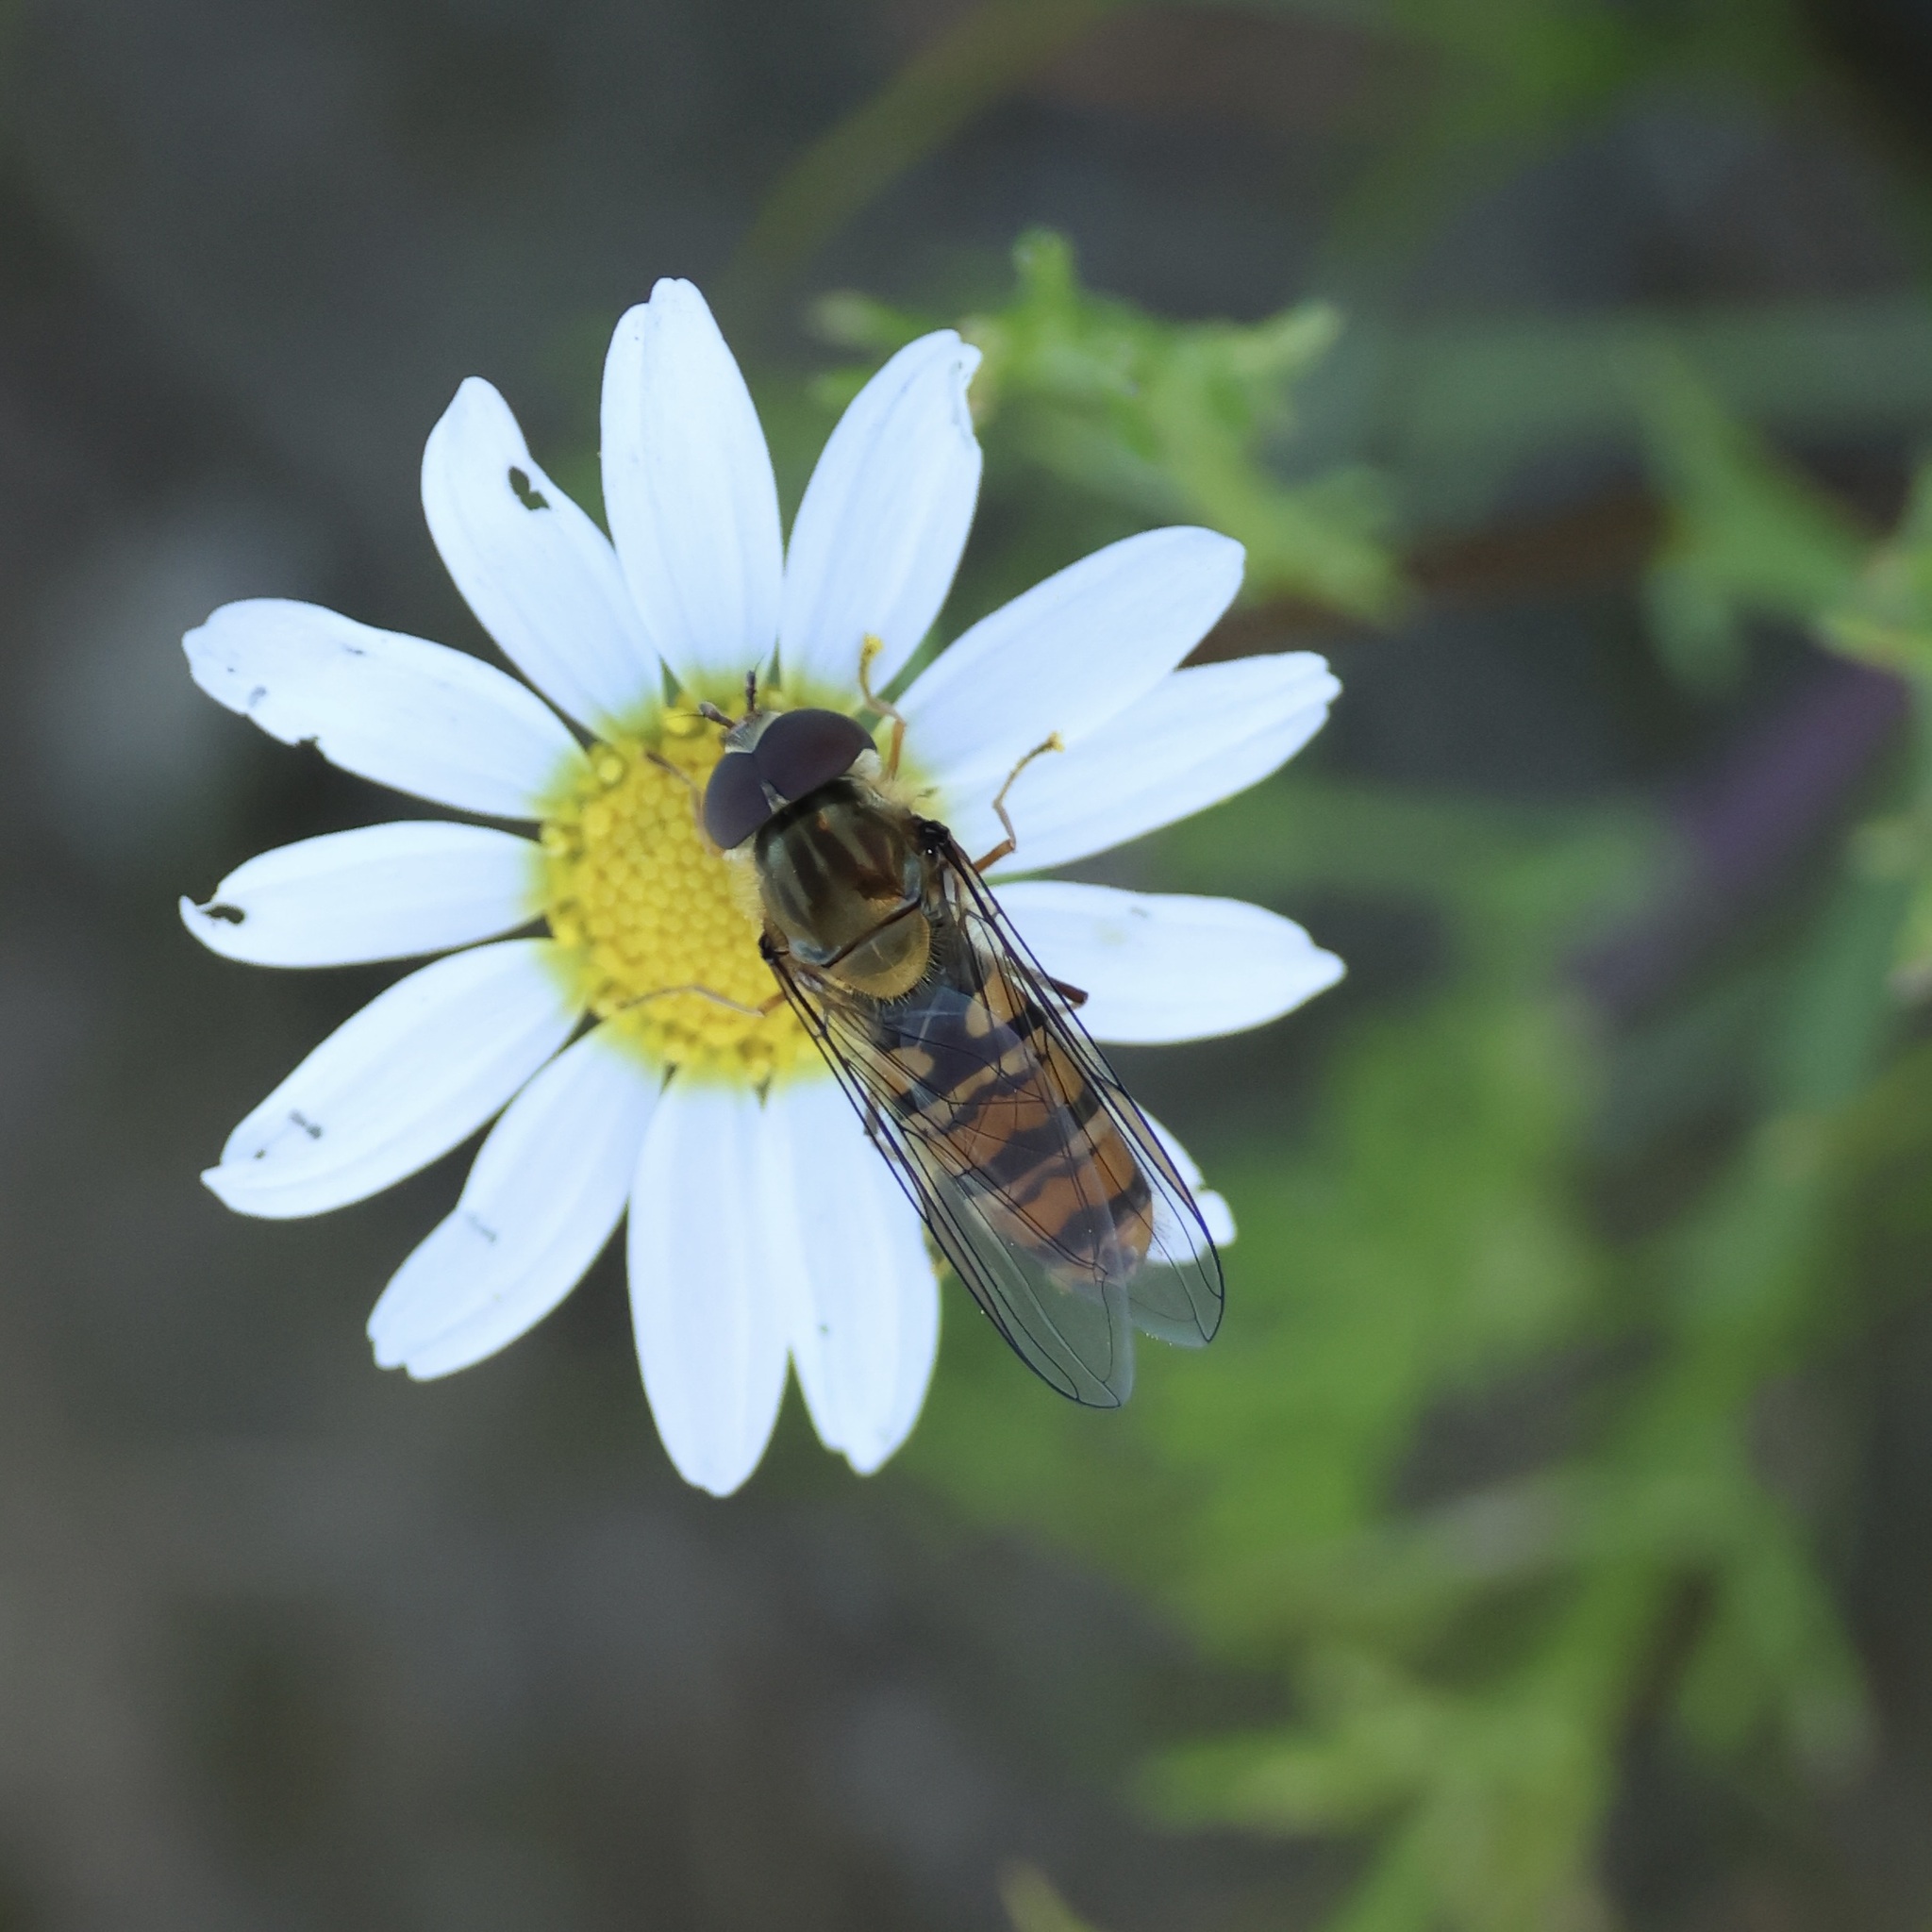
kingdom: Animalia
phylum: Arthropoda
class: Insecta
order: Diptera
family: Syrphidae
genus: Episyrphus
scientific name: Episyrphus balteatus
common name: Marmalade hoverfly
